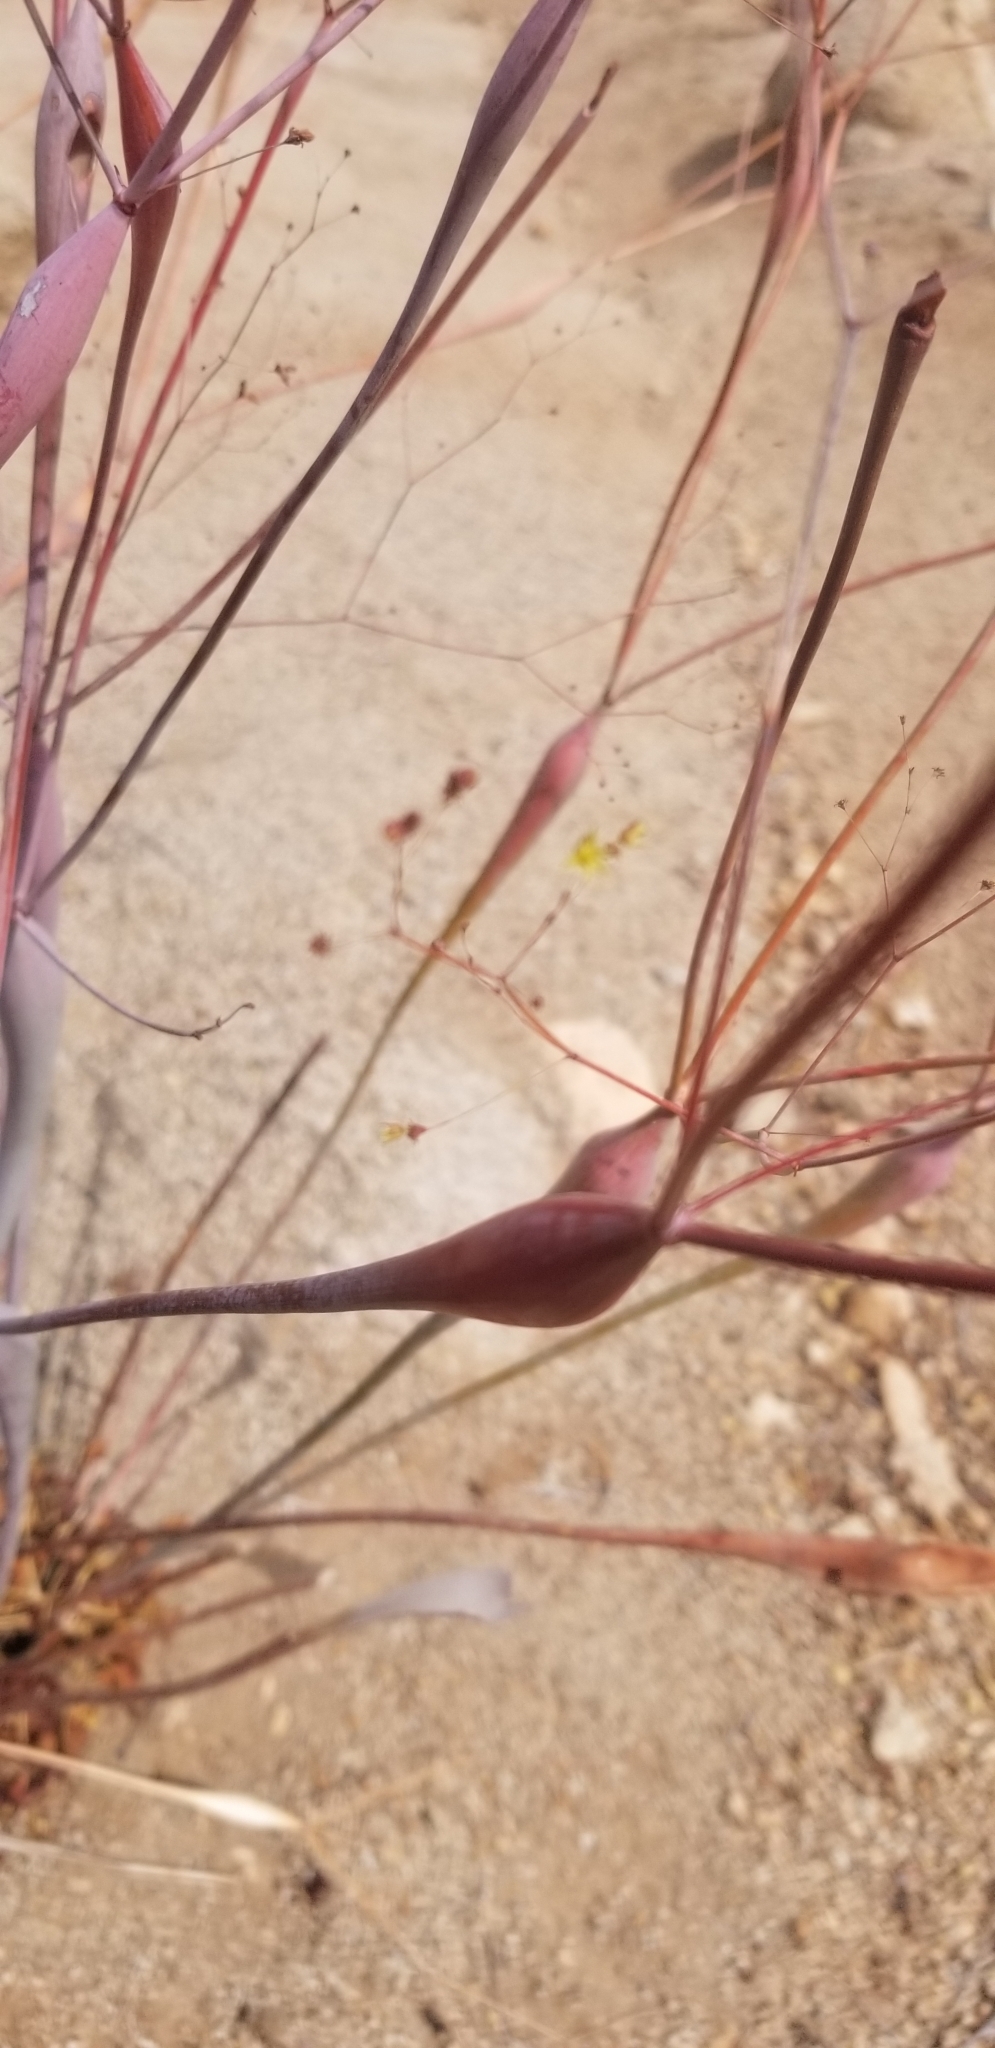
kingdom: Plantae
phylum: Tracheophyta
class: Magnoliopsida
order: Caryophyllales
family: Polygonaceae
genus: Eriogonum
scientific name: Eriogonum inflatum
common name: Desert trumpet
